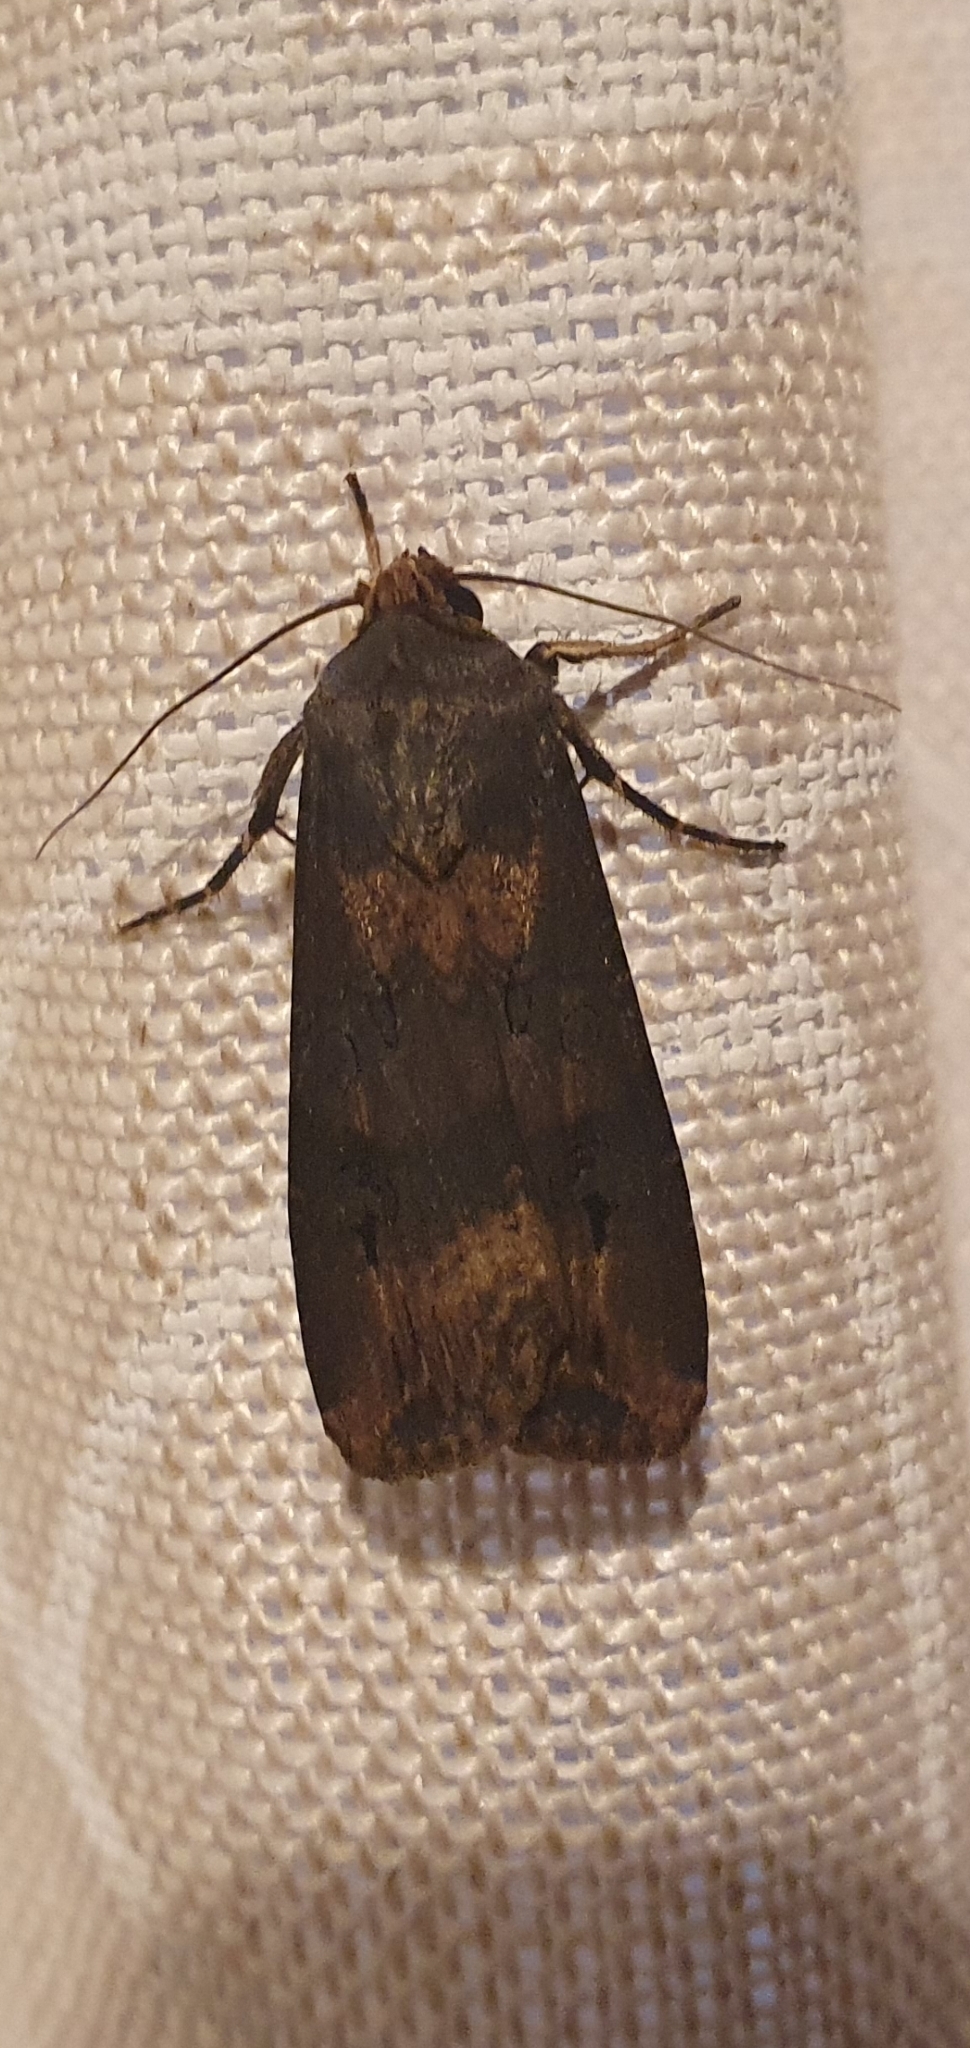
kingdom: Animalia
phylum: Arthropoda
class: Insecta
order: Lepidoptera
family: Noctuidae
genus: Agrotis
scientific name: Agrotis ipsilon
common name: Dark sword-grass
